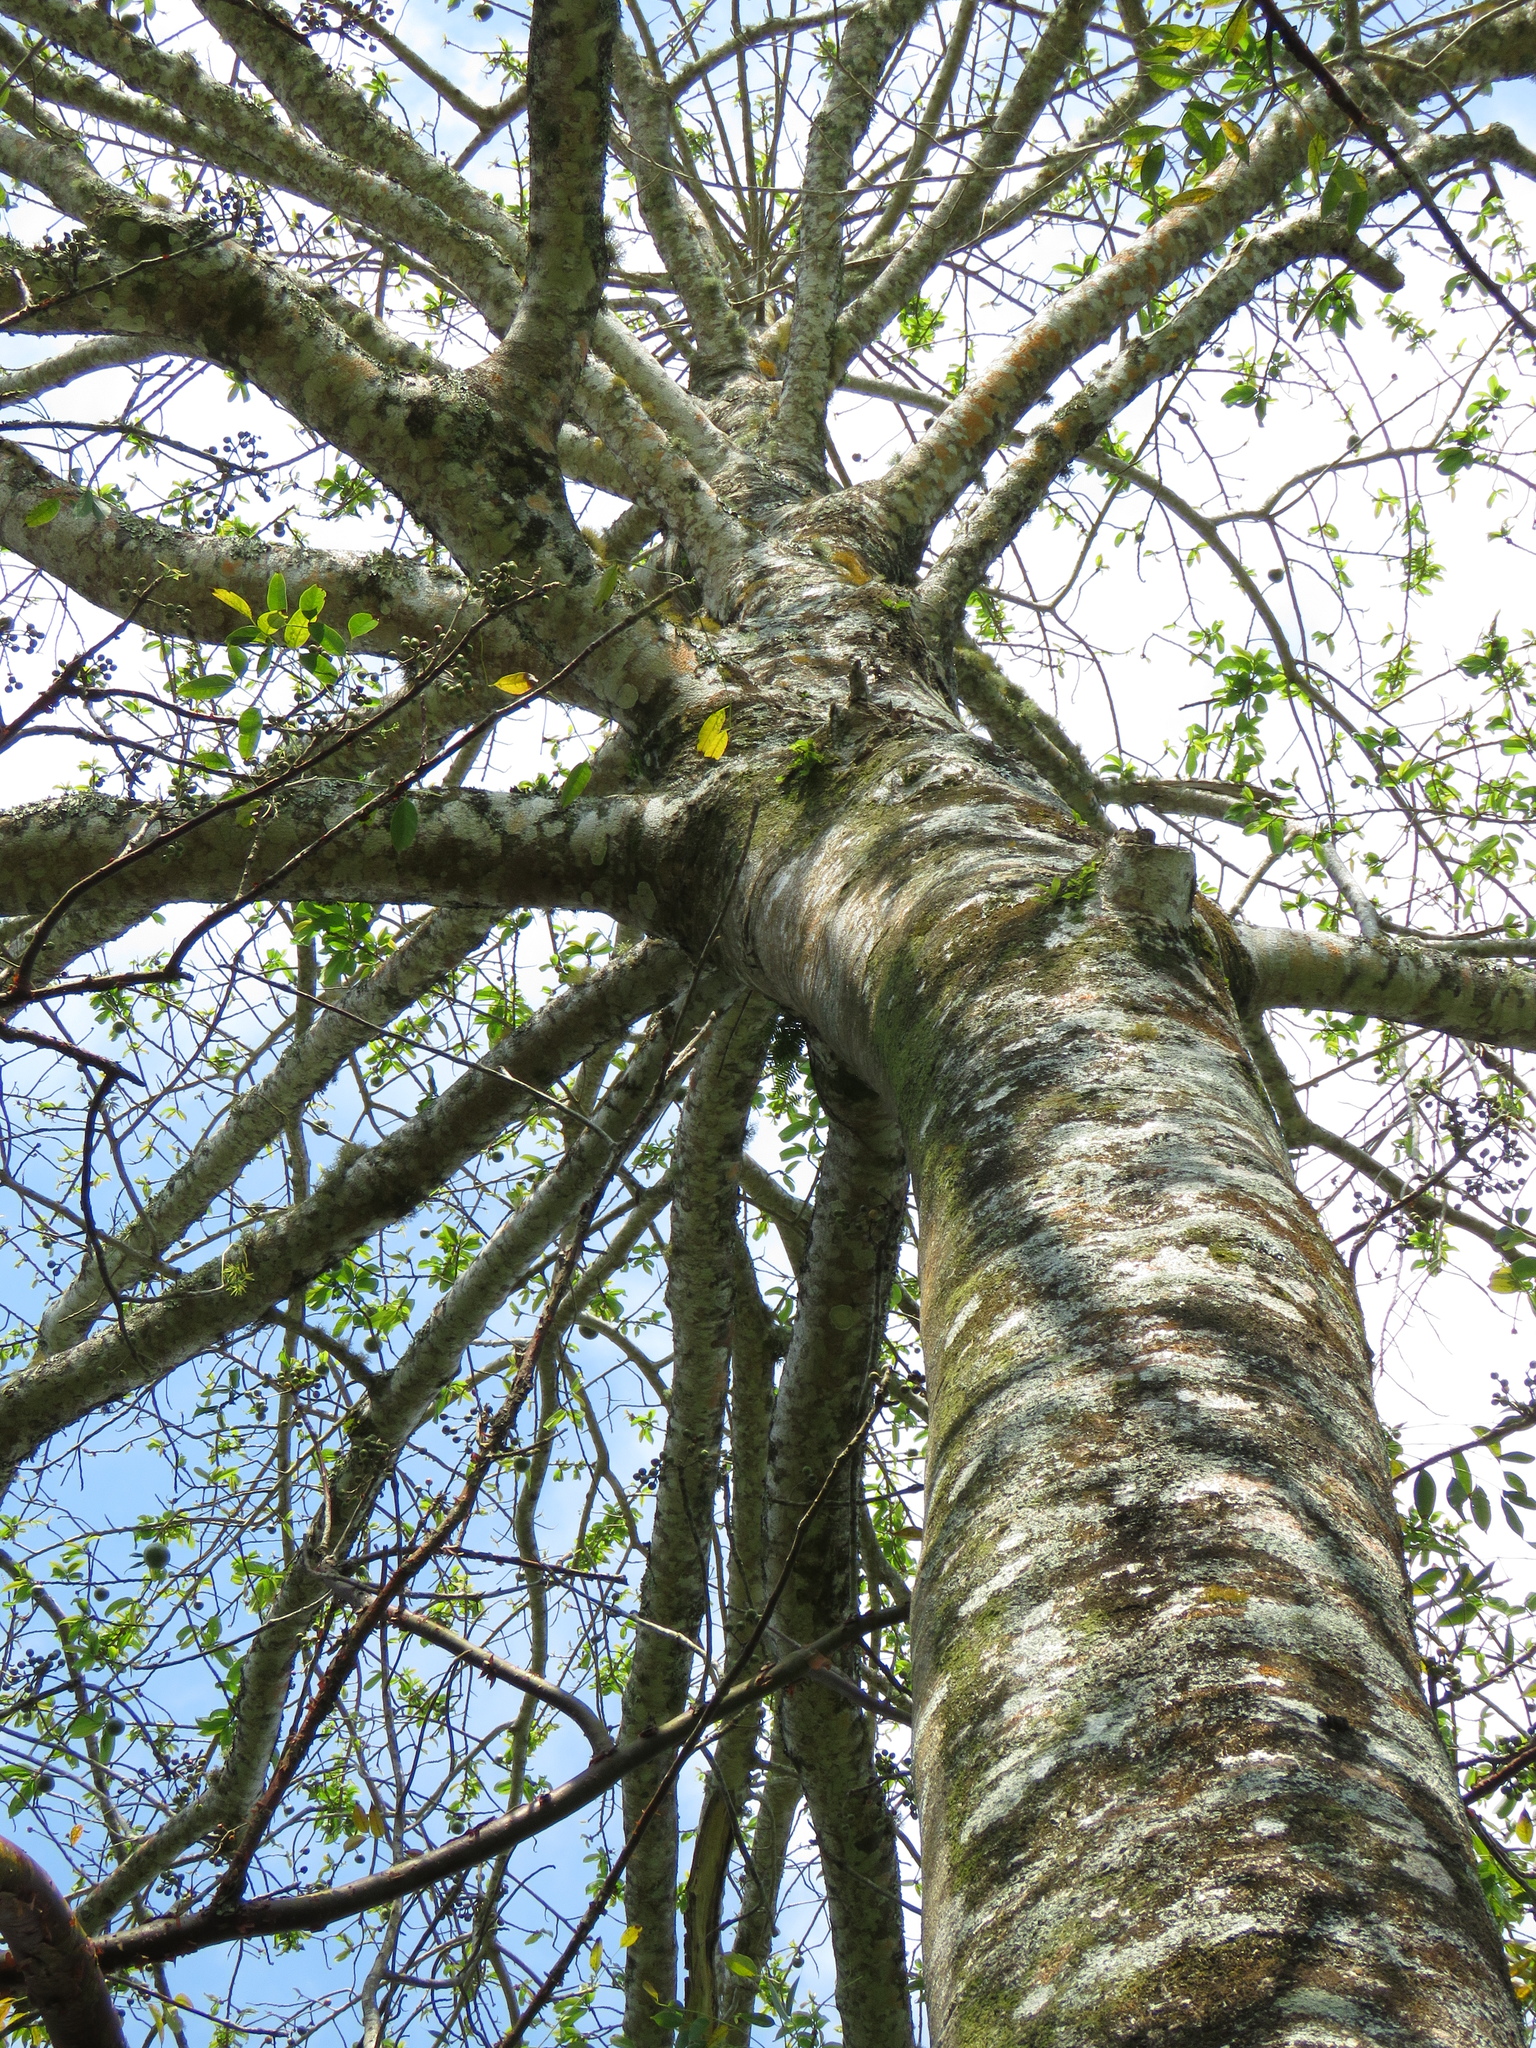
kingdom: Plantae
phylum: Tracheophyta
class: Magnoliopsida
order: Malpighiales
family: Salicaceae
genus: Casearia
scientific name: Casearia icosandra
